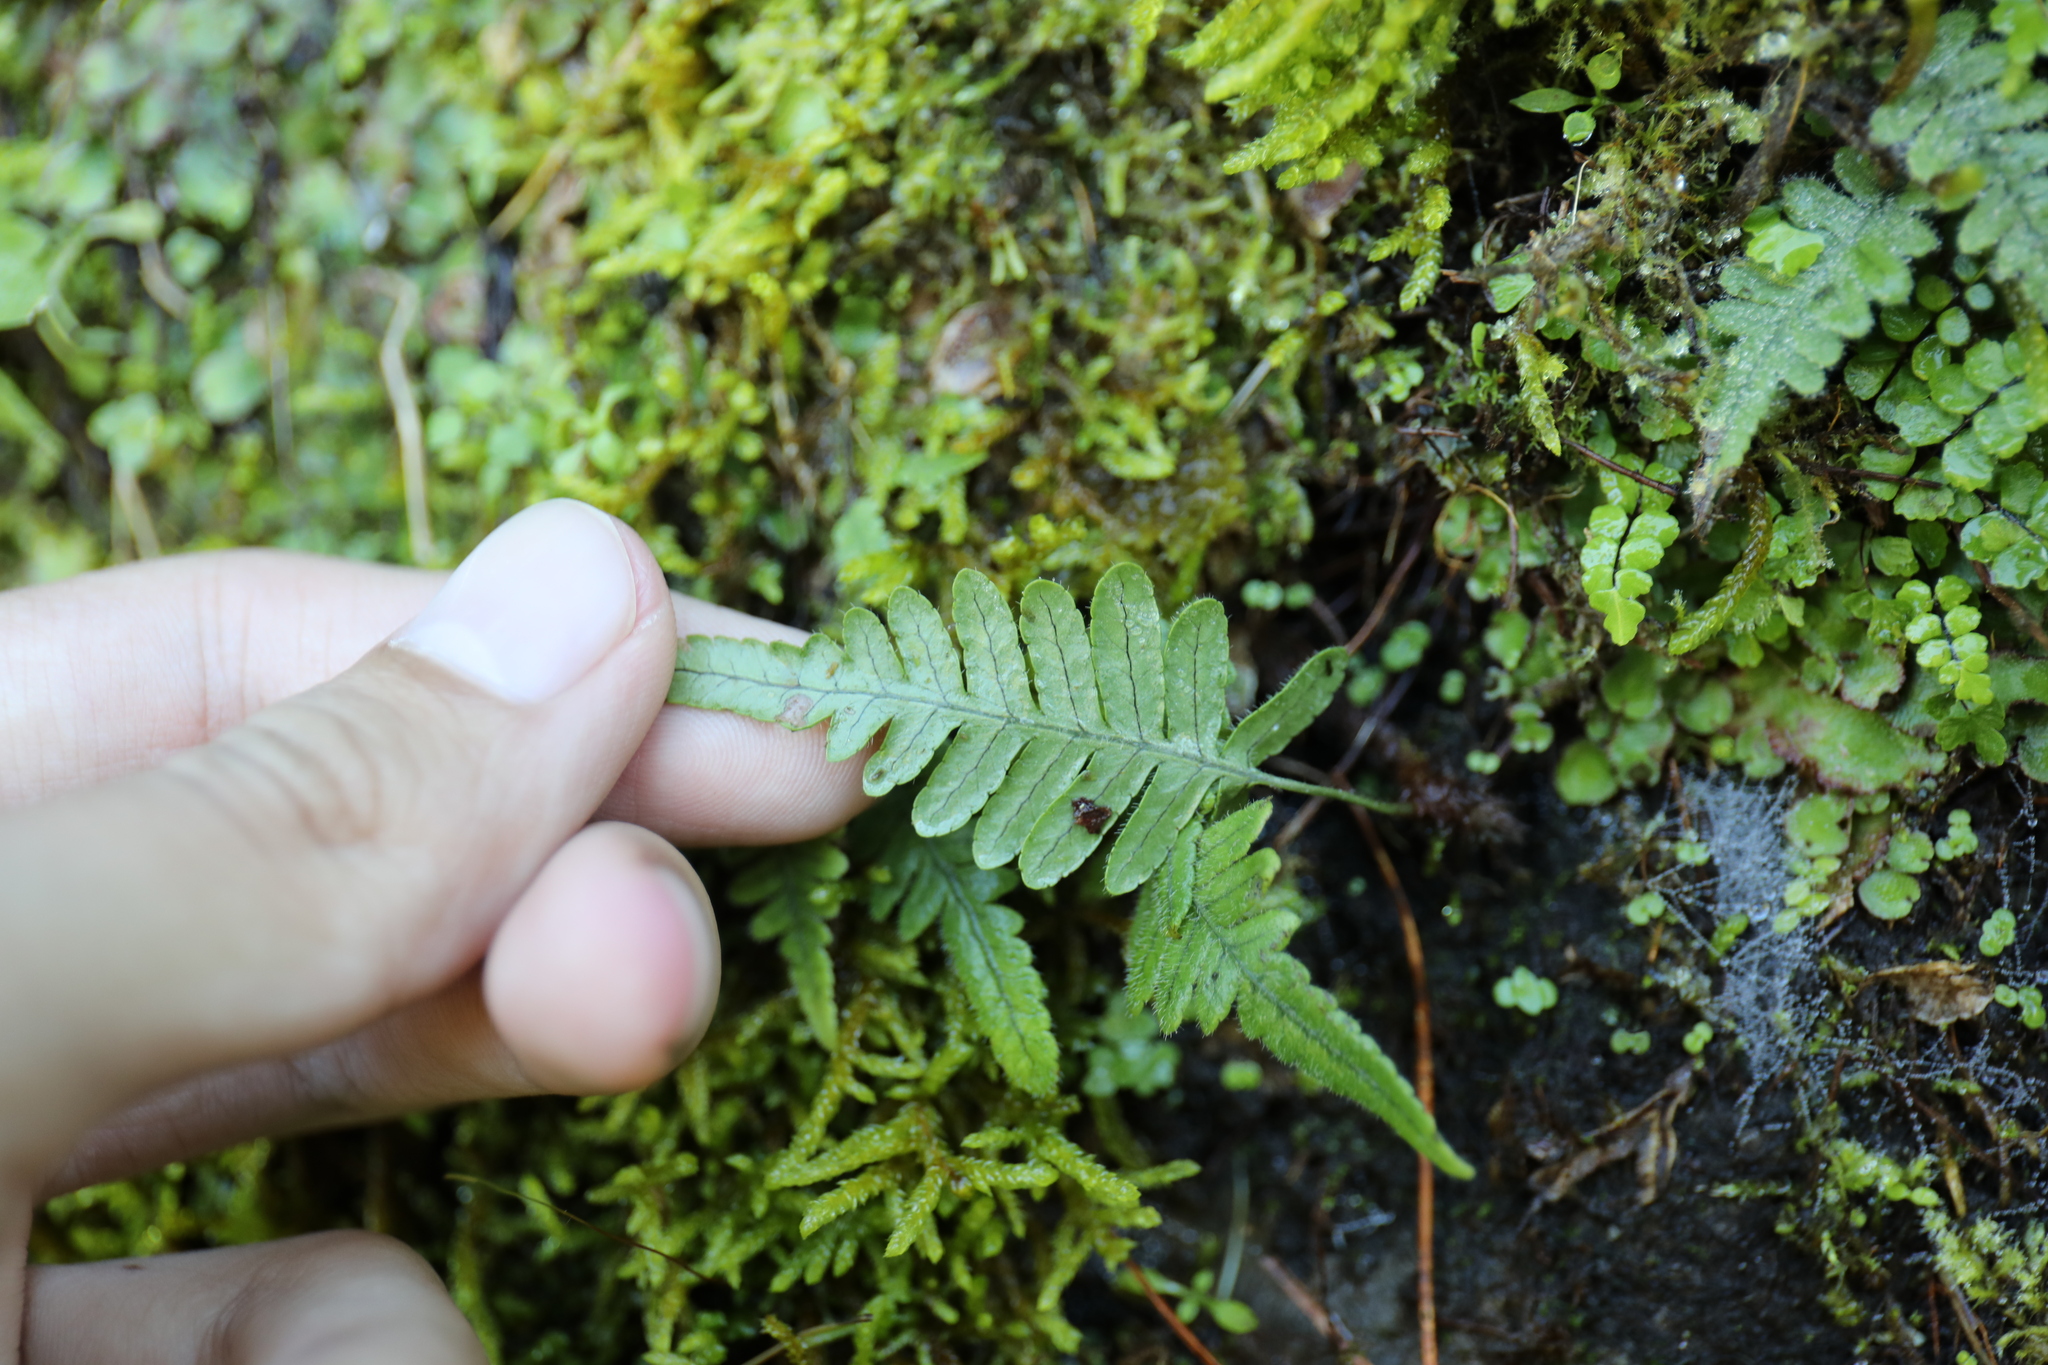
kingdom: Plantae
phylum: Tracheophyta
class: Polypodiopsida
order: Polypodiales
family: Polypodiaceae
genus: Goniophlebium
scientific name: Goniophlebium amoenum
